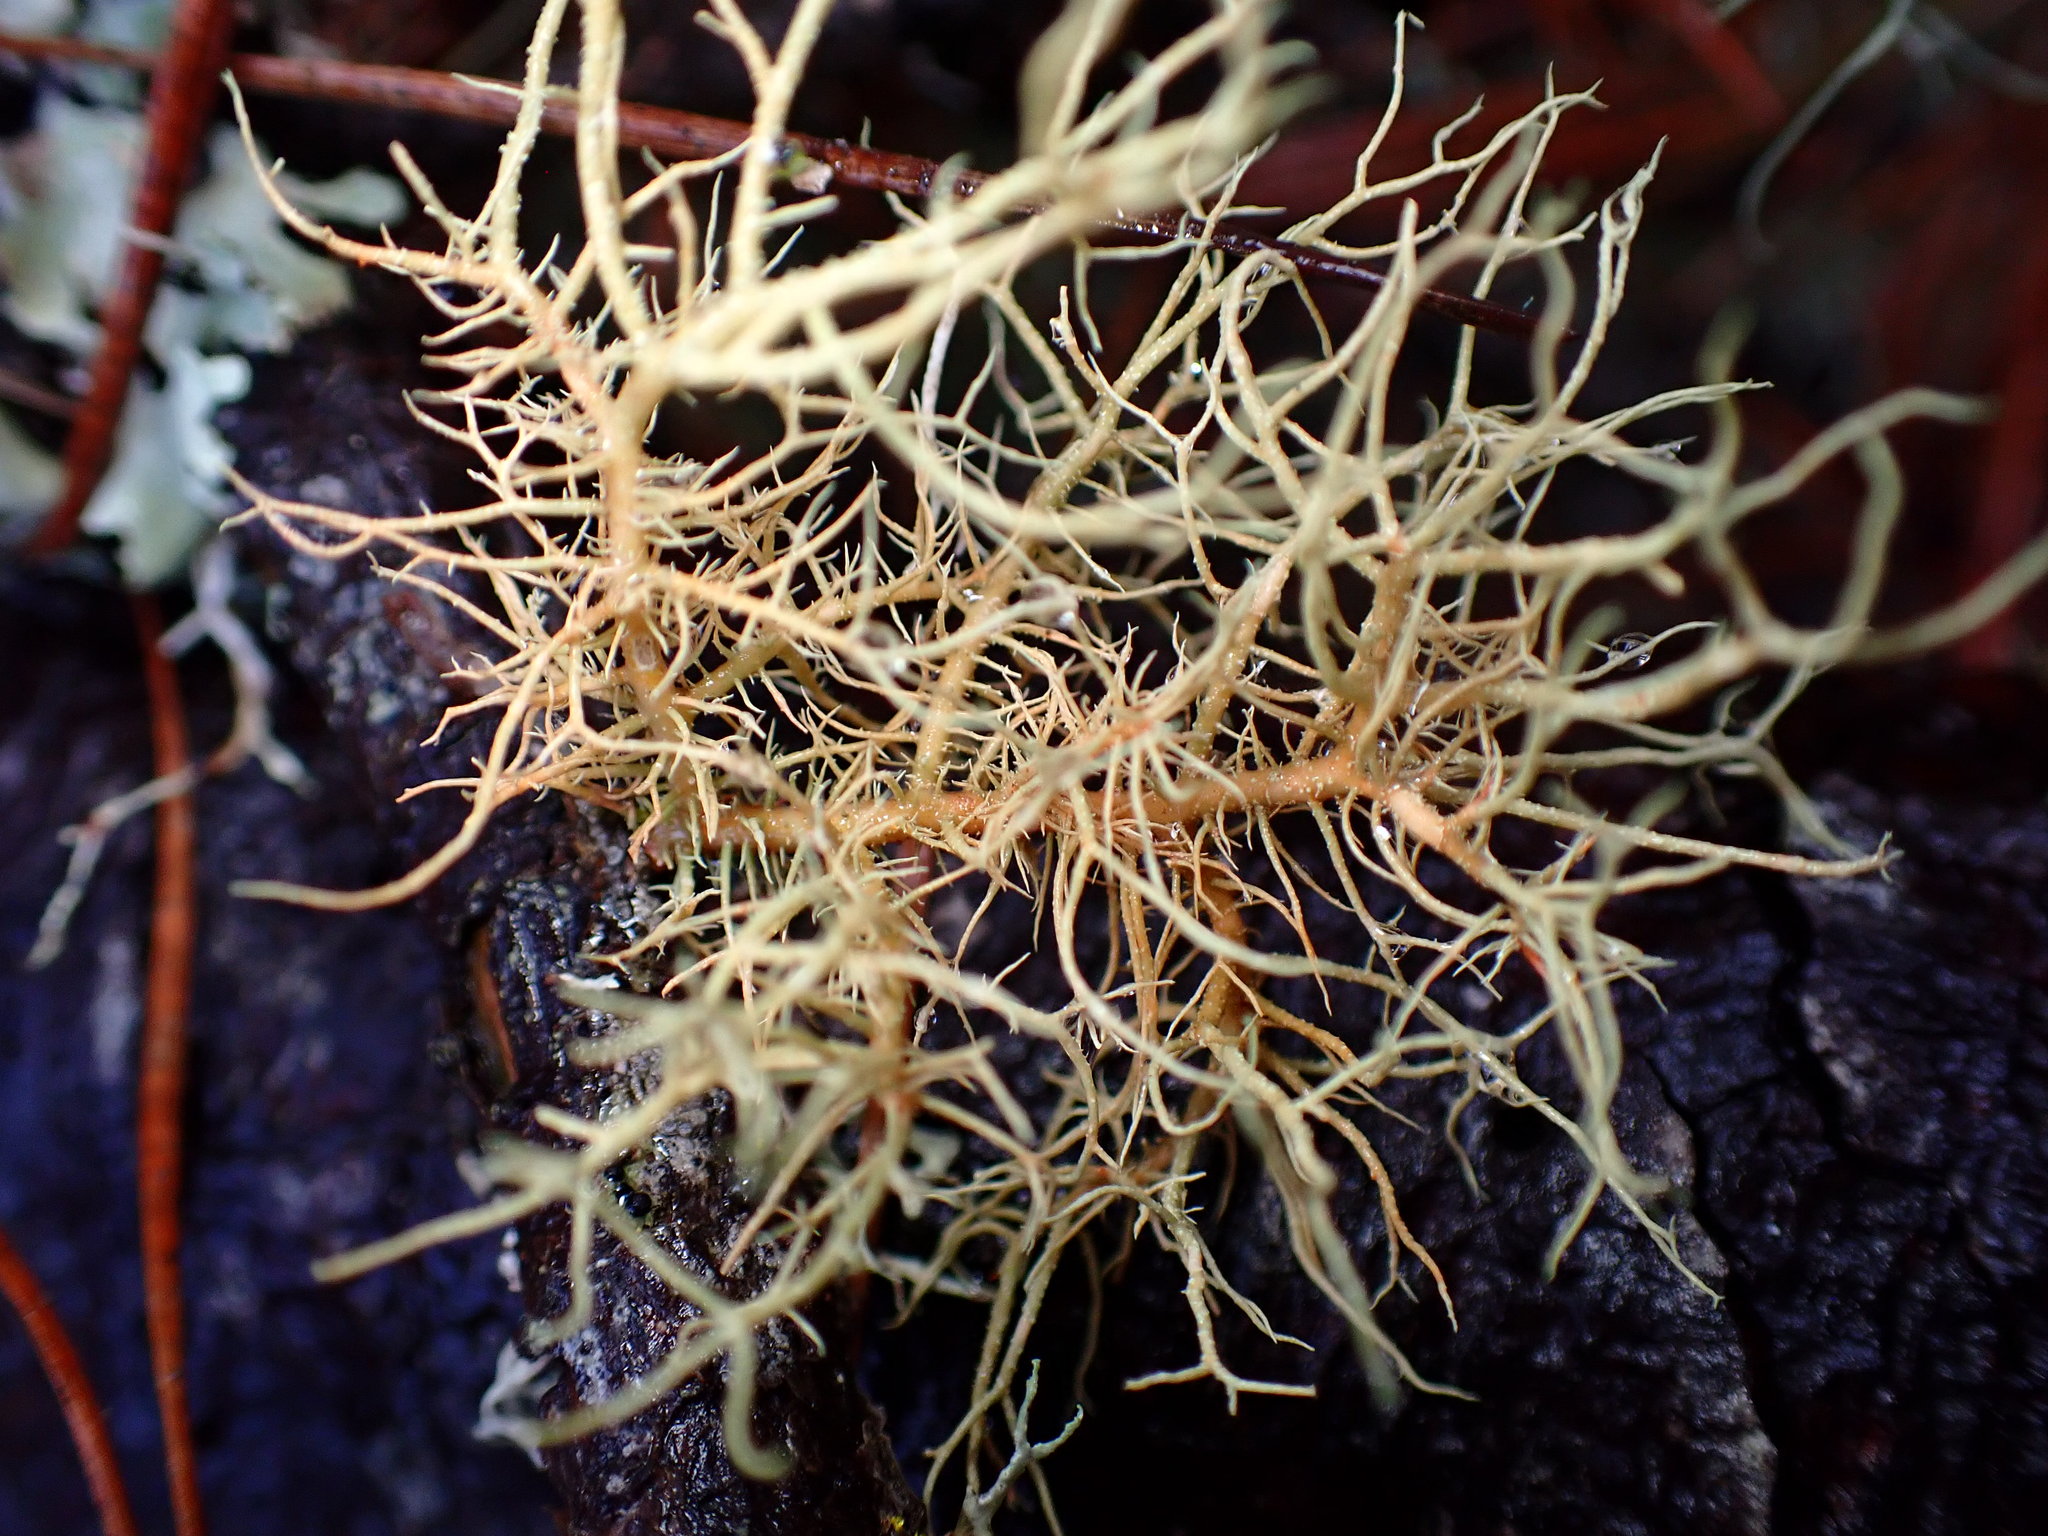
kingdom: Fungi
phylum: Ascomycota
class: Lecanoromycetes
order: Lecanorales
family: Parmeliaceae
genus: Usnea
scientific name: Usnea rubicunda
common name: Red beard lichen
